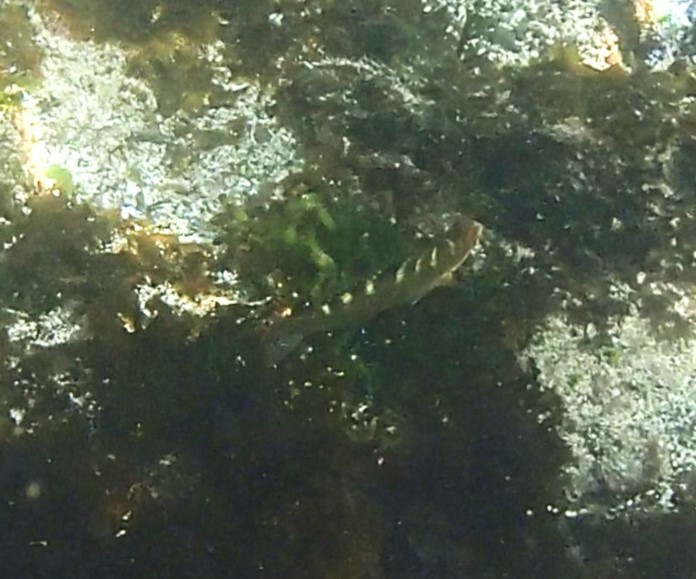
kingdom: Animalia
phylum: Chordata
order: Perciformes
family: Labridae
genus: Halichoeres
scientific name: Halichoeres notospilus
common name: Banded wrasse
